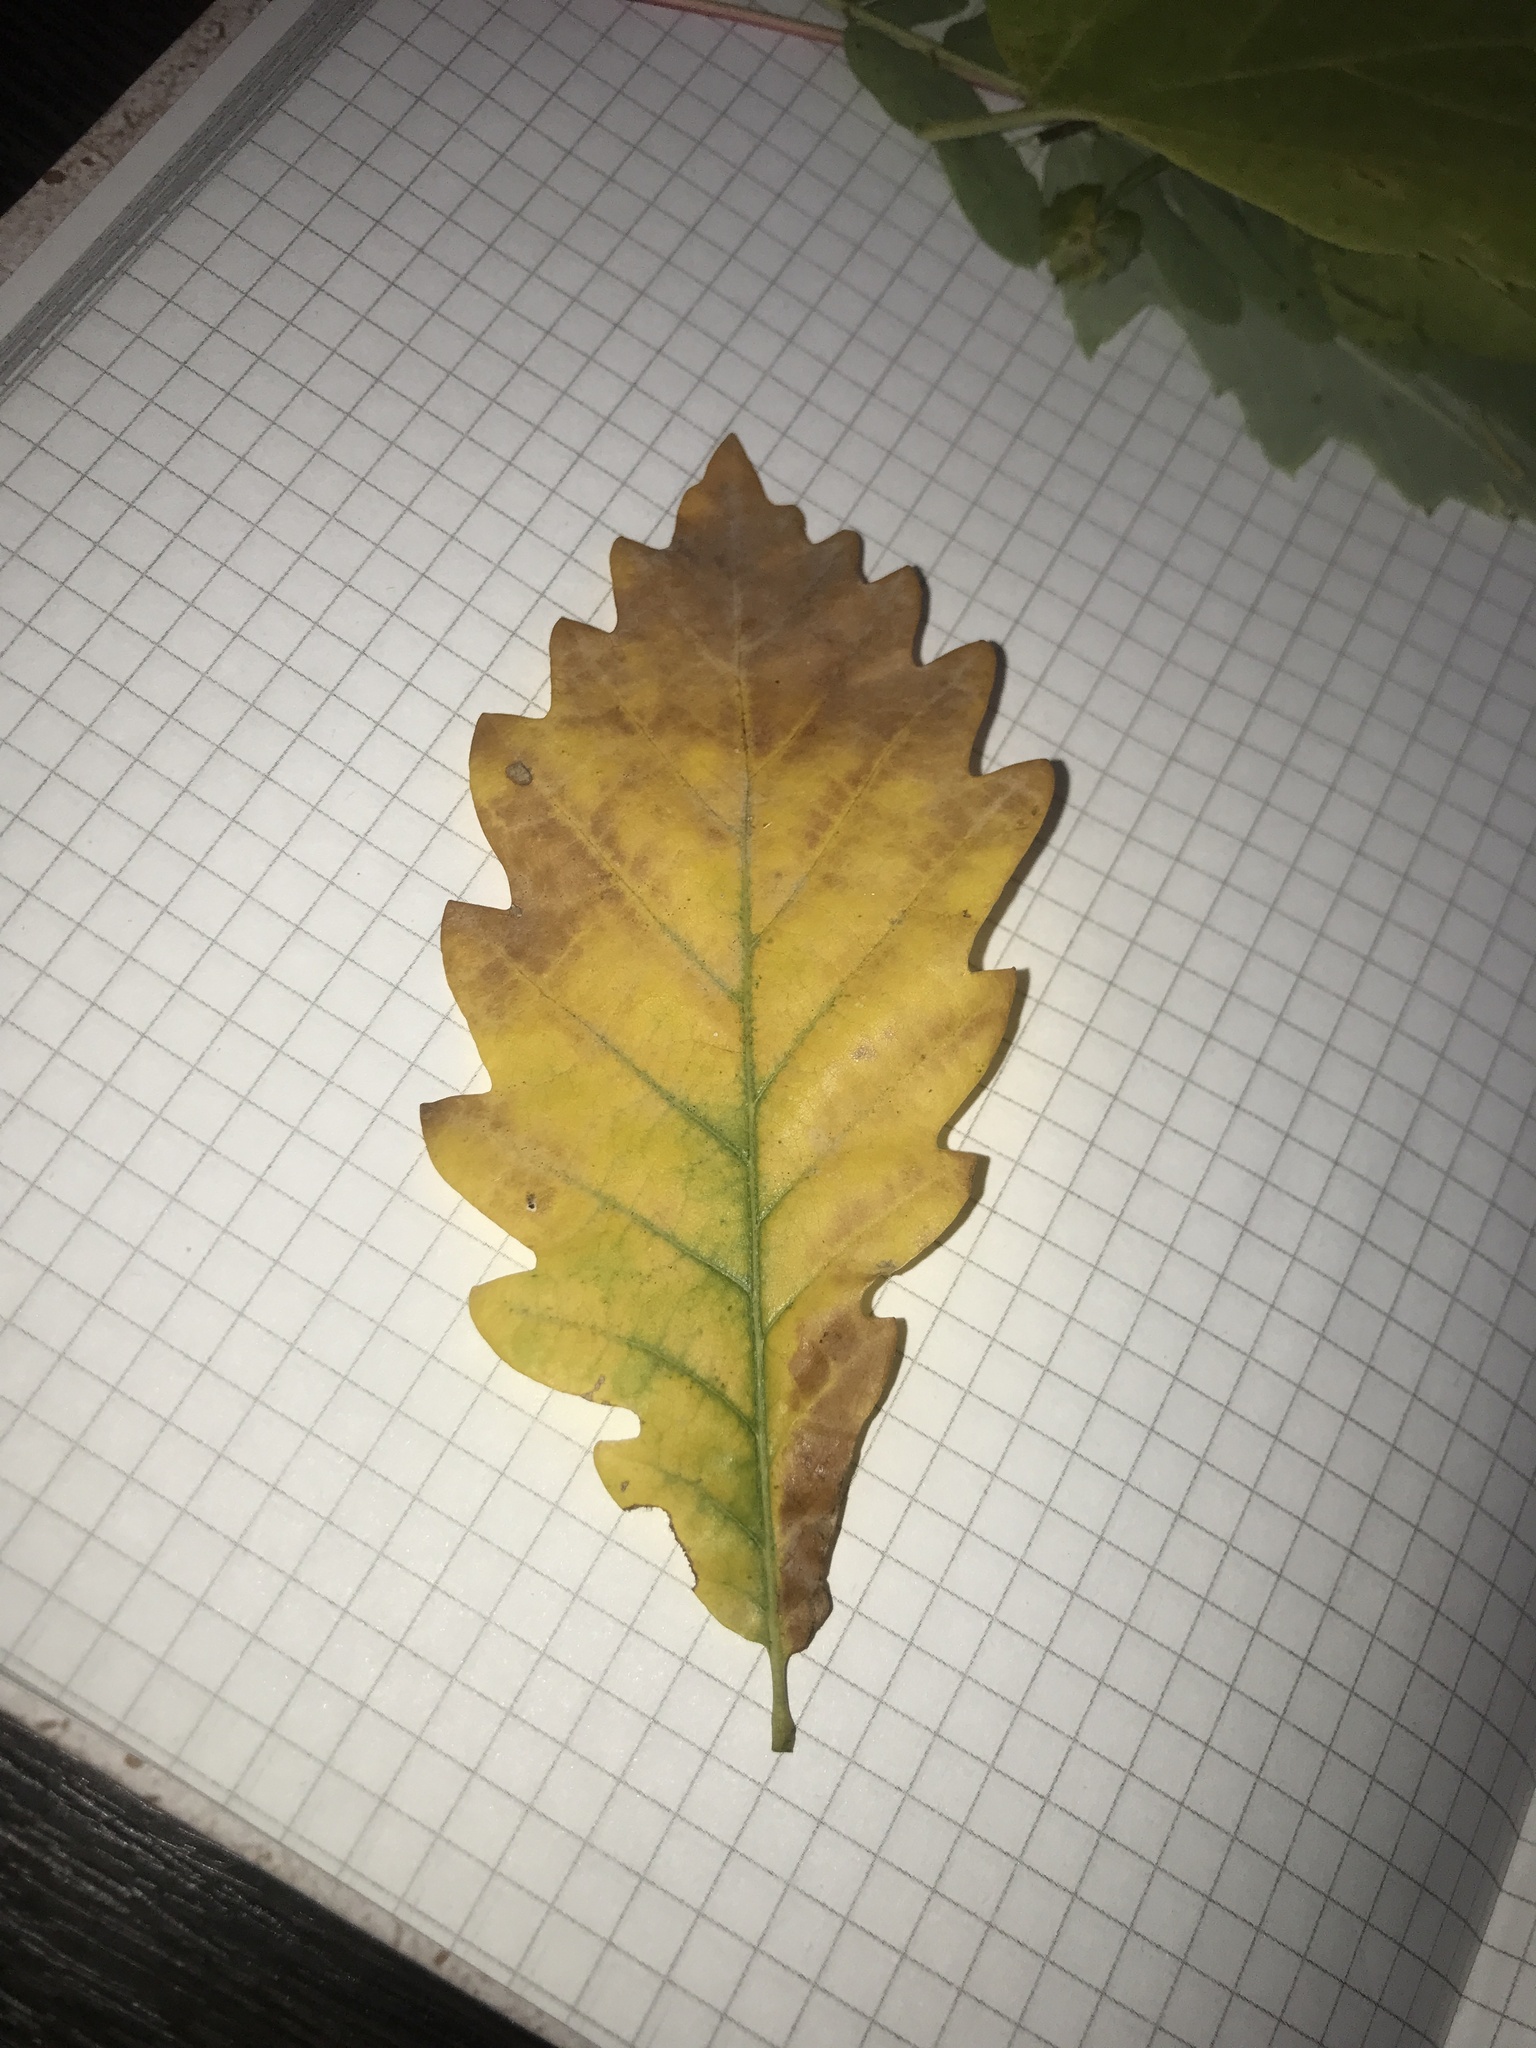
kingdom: Plantae
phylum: Tracheophyta
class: Magnoliopsida
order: Fagales
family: Fagaceae
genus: Quercus
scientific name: Quercus robur
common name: Pedunculate oak
